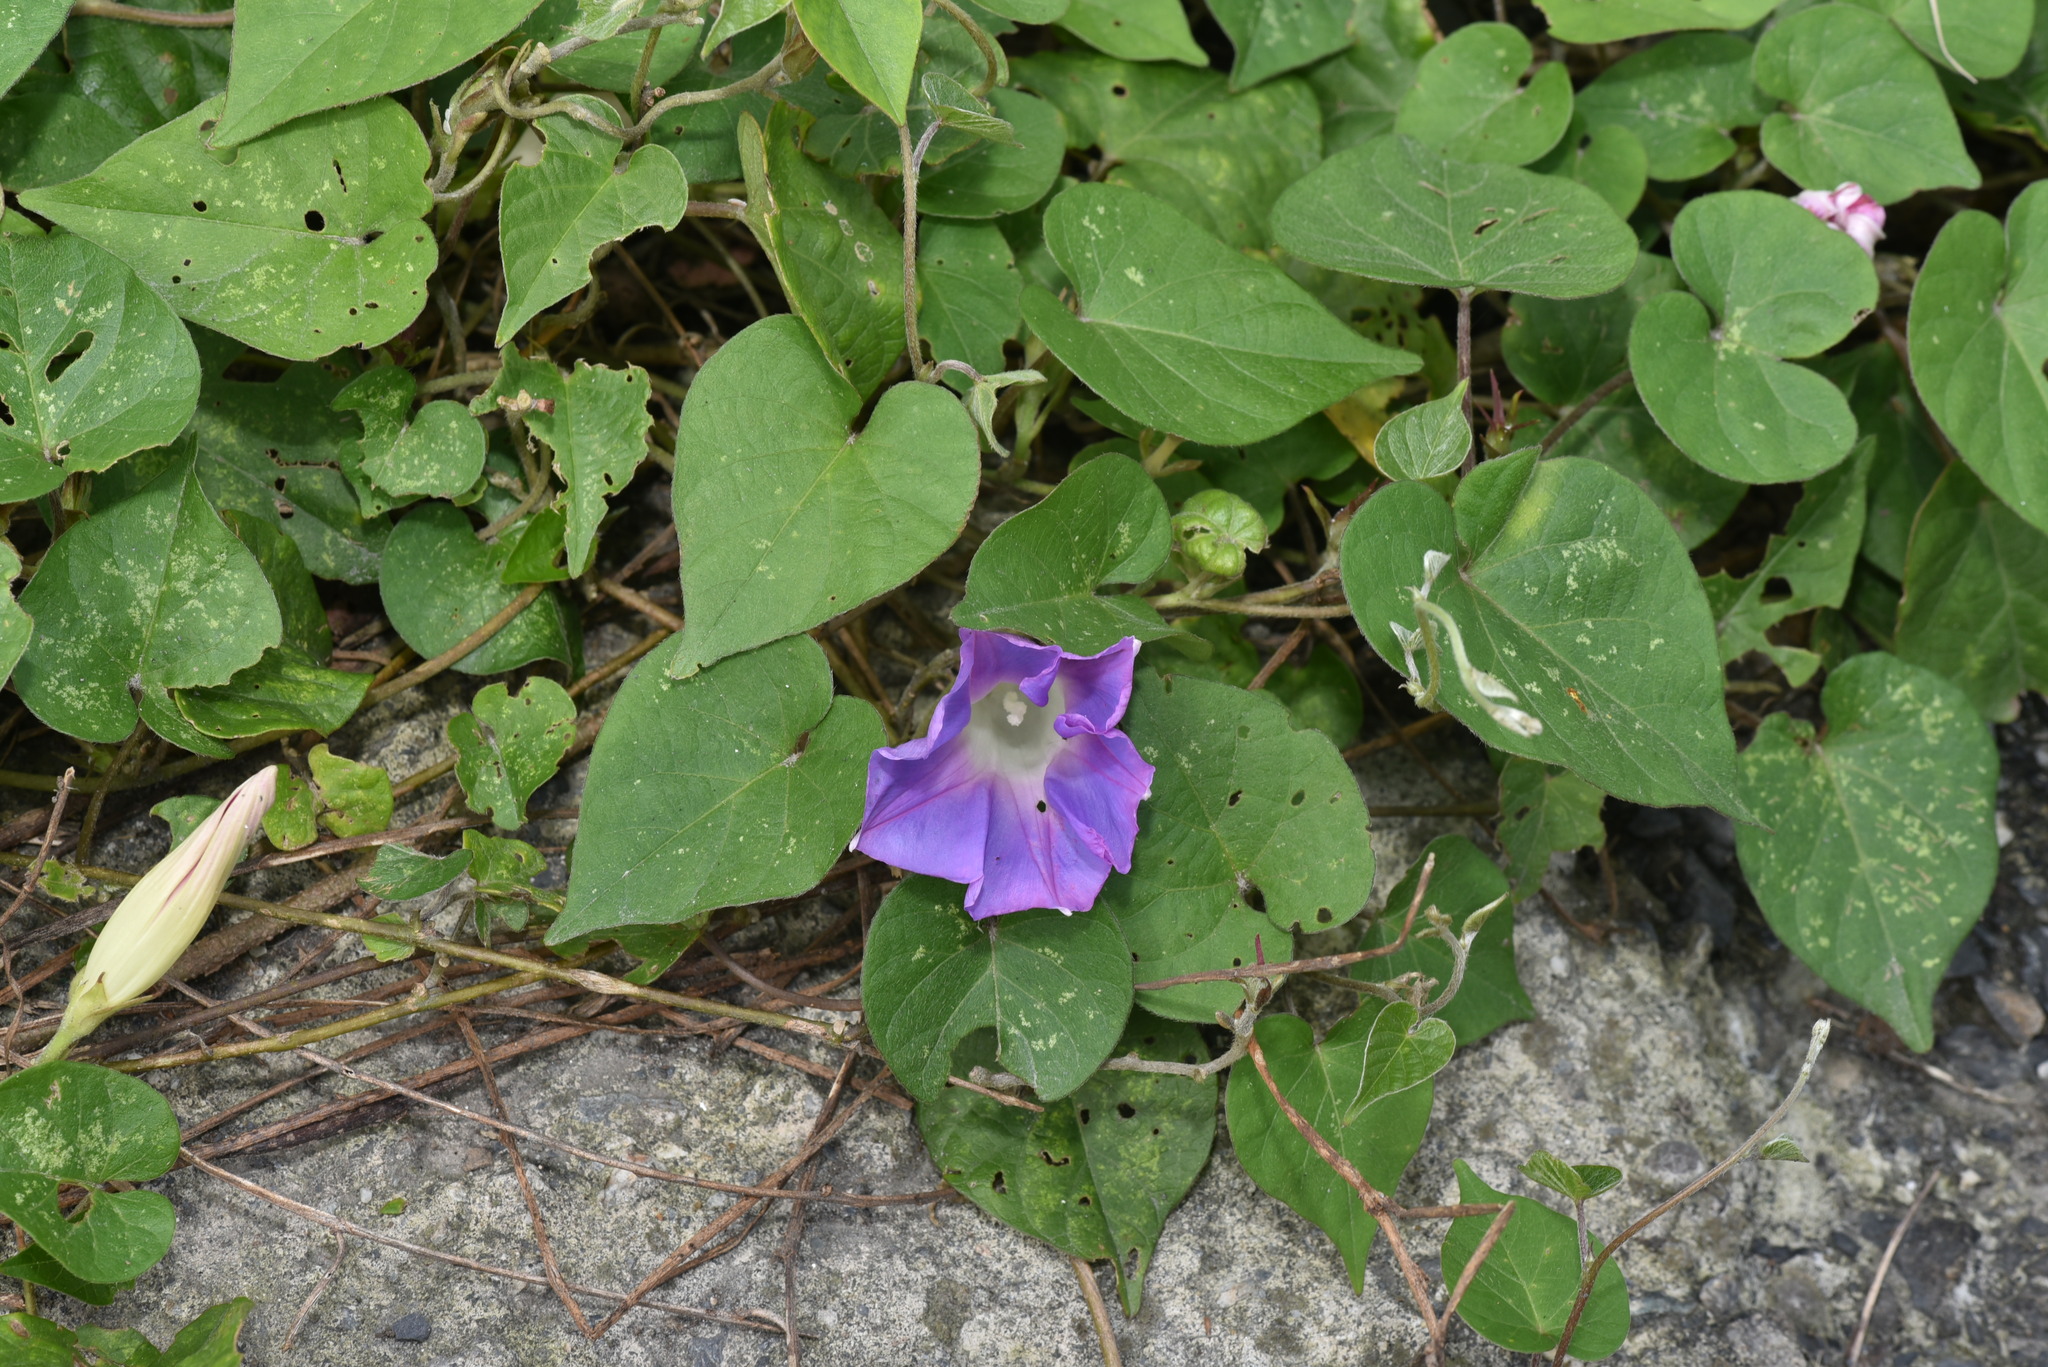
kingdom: Plantae
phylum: Tracheophyta
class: Magnoliopsida
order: Solanales
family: Convolvulaceae
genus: Ipomoea
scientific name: Ipomoea indica
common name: Blue dawnflower
